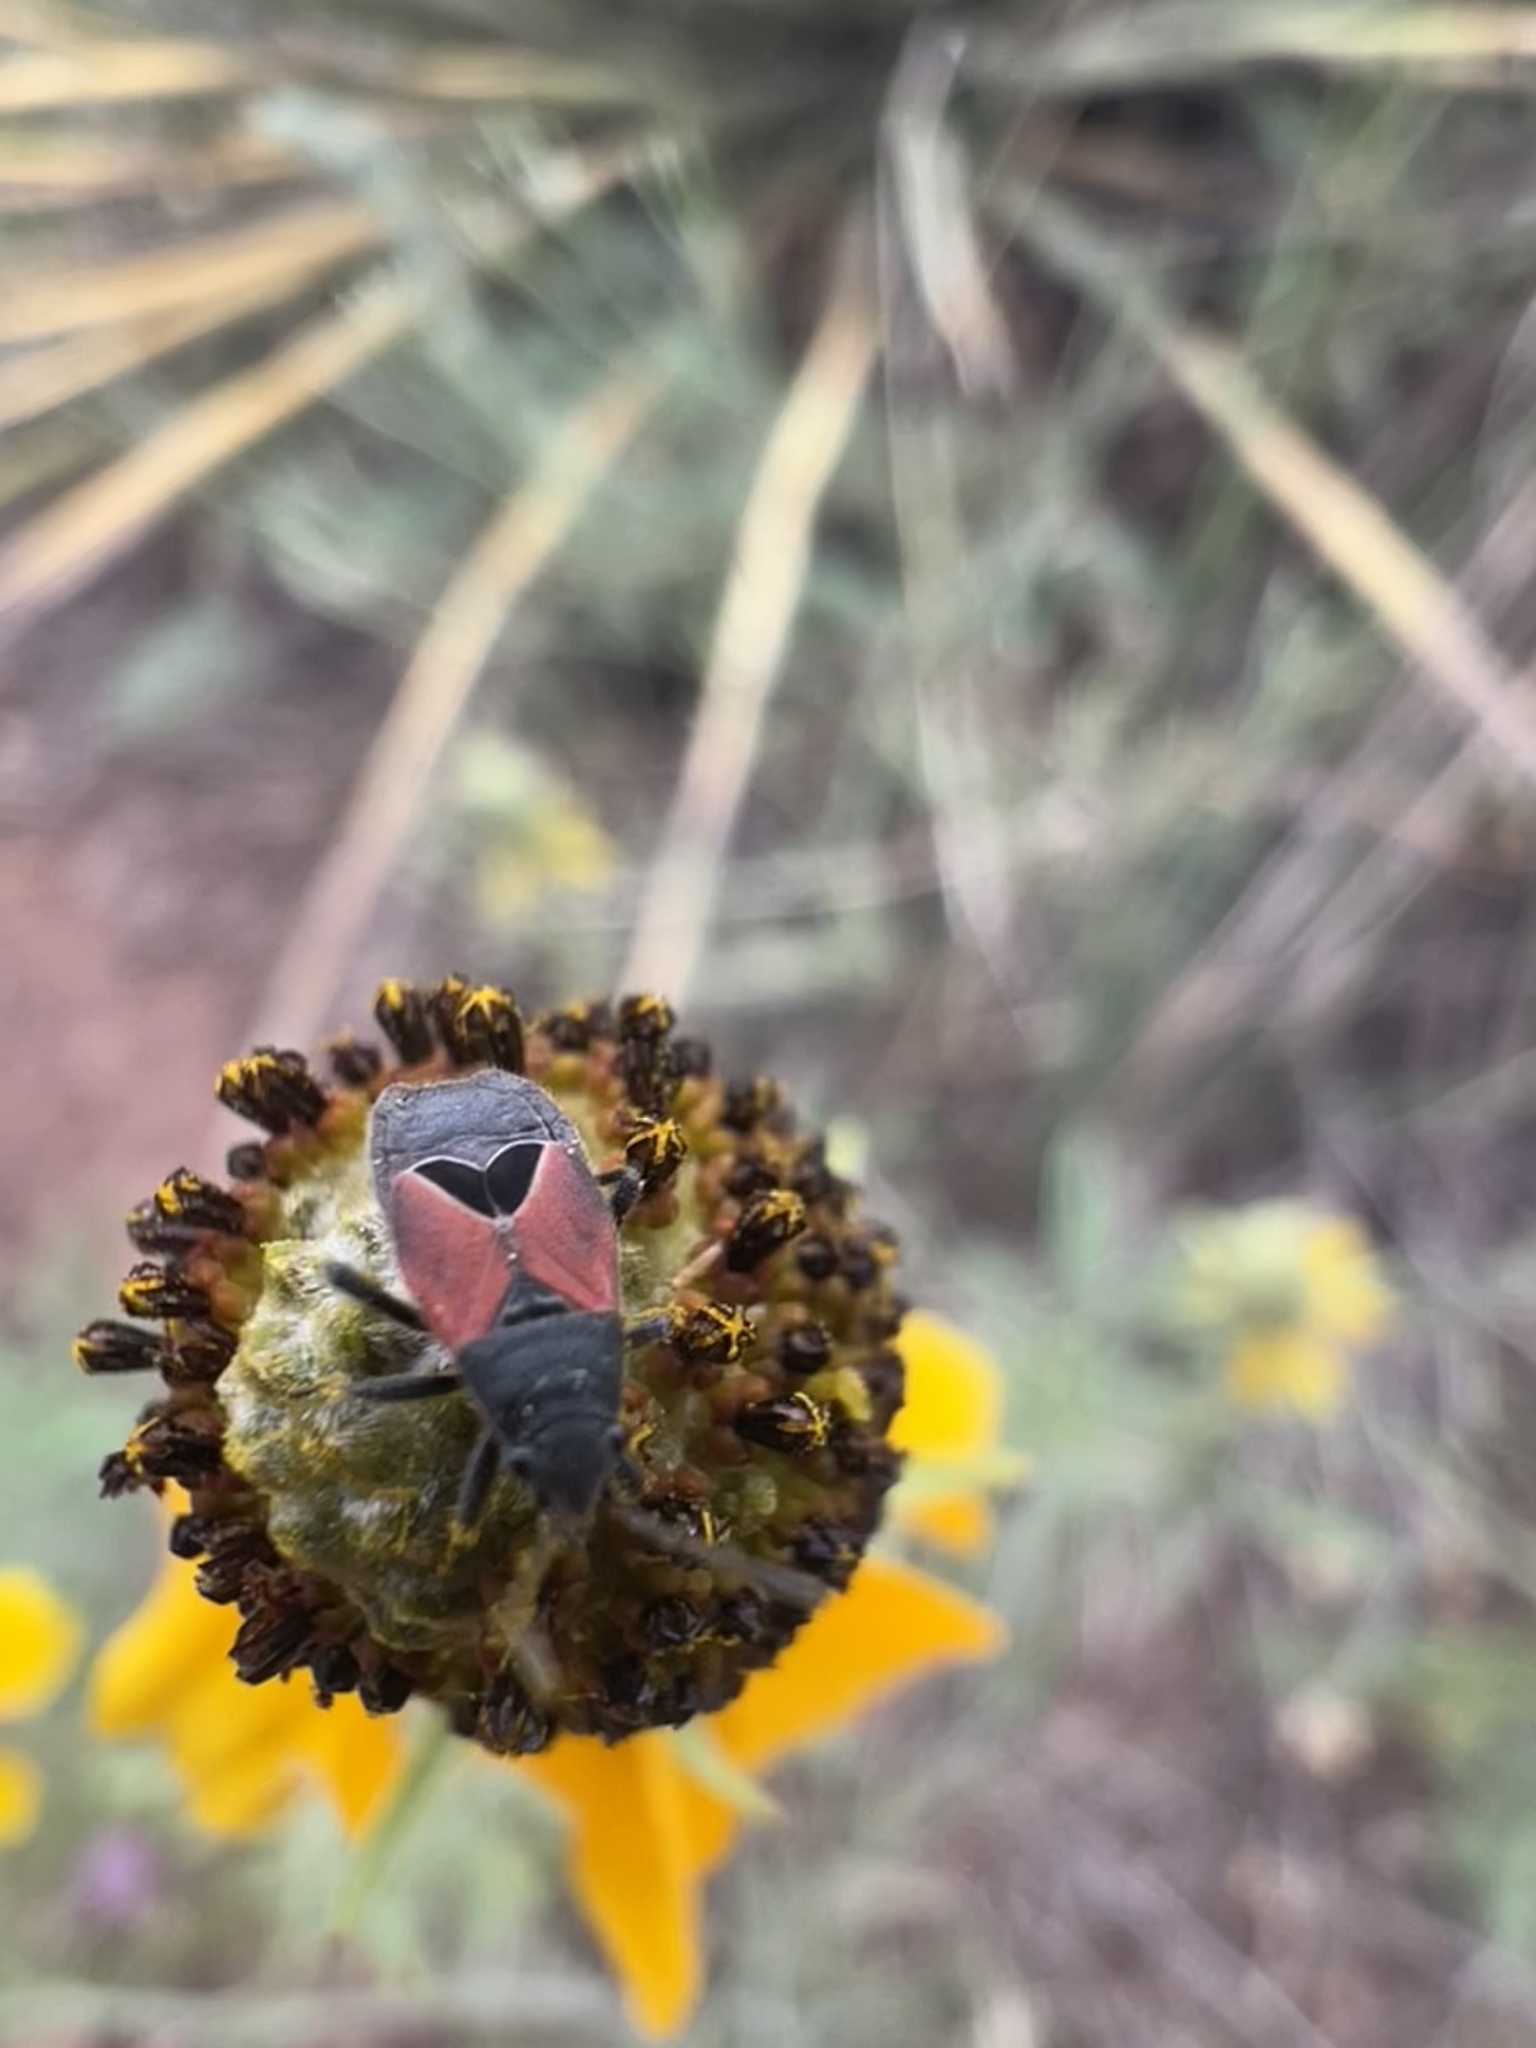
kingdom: Animalia
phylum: Arthropoda
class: Insecta
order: Hemiptera
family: Lygaeidae
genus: Melanopleurus
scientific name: Melanopleurus tenor
